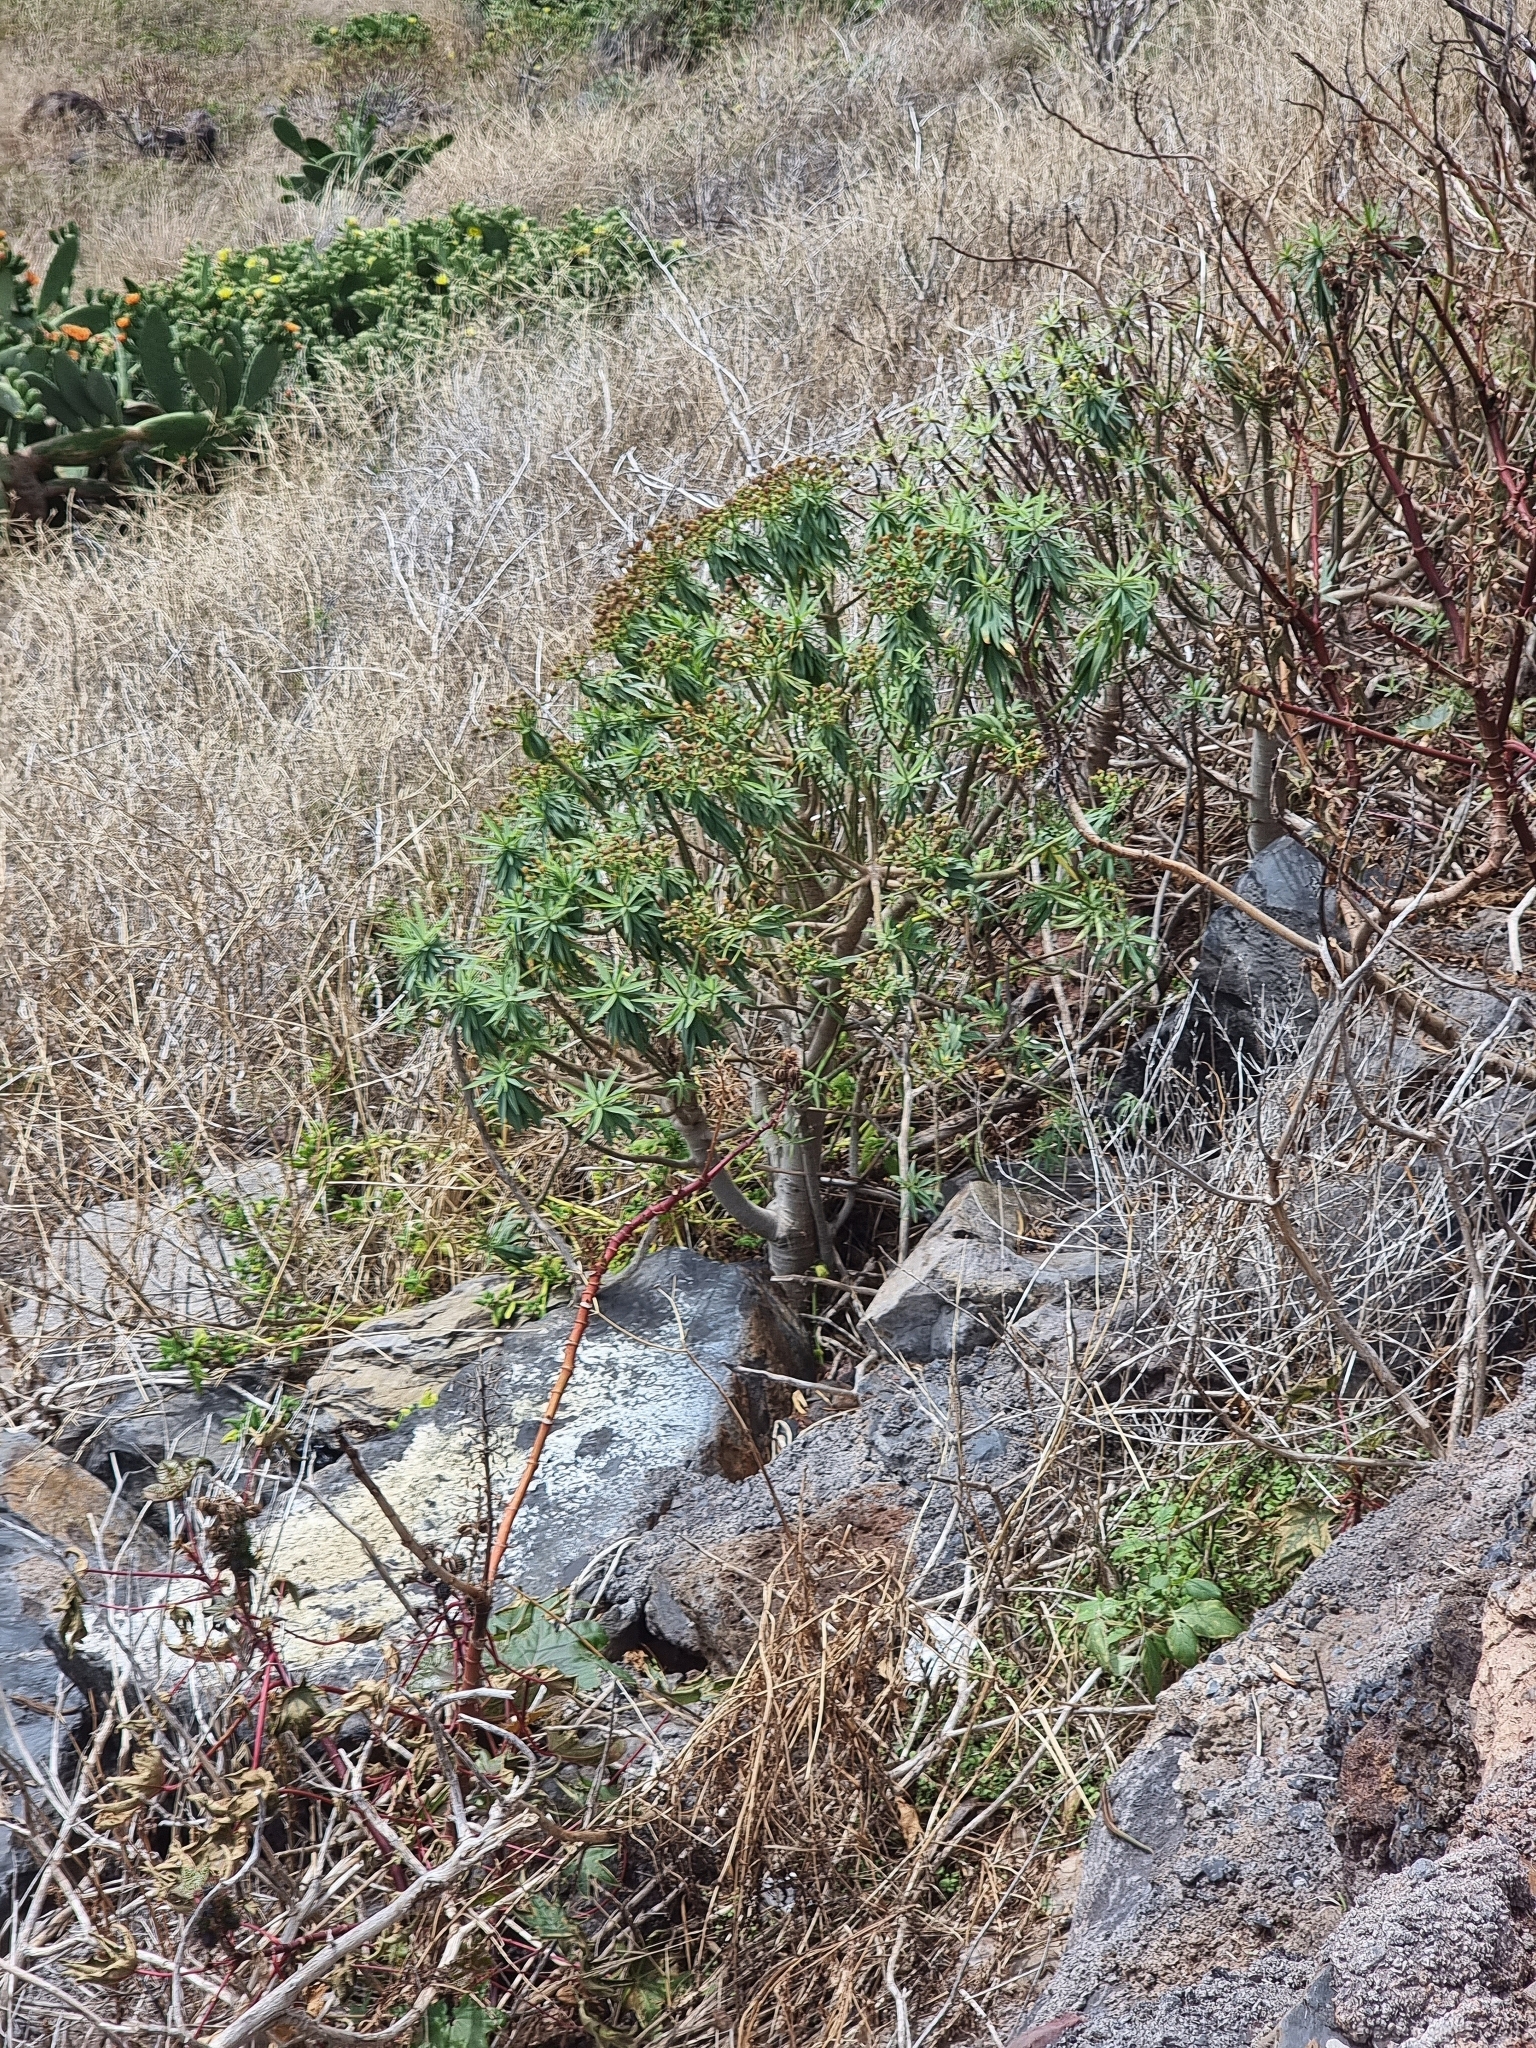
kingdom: Plantae
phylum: Tracheophyta
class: Magnoliopsida
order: Malpighiales
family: Euphorbiaceae
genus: Euphorbia
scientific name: Euphorbia piscatoria
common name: Fish-stunning spurge
